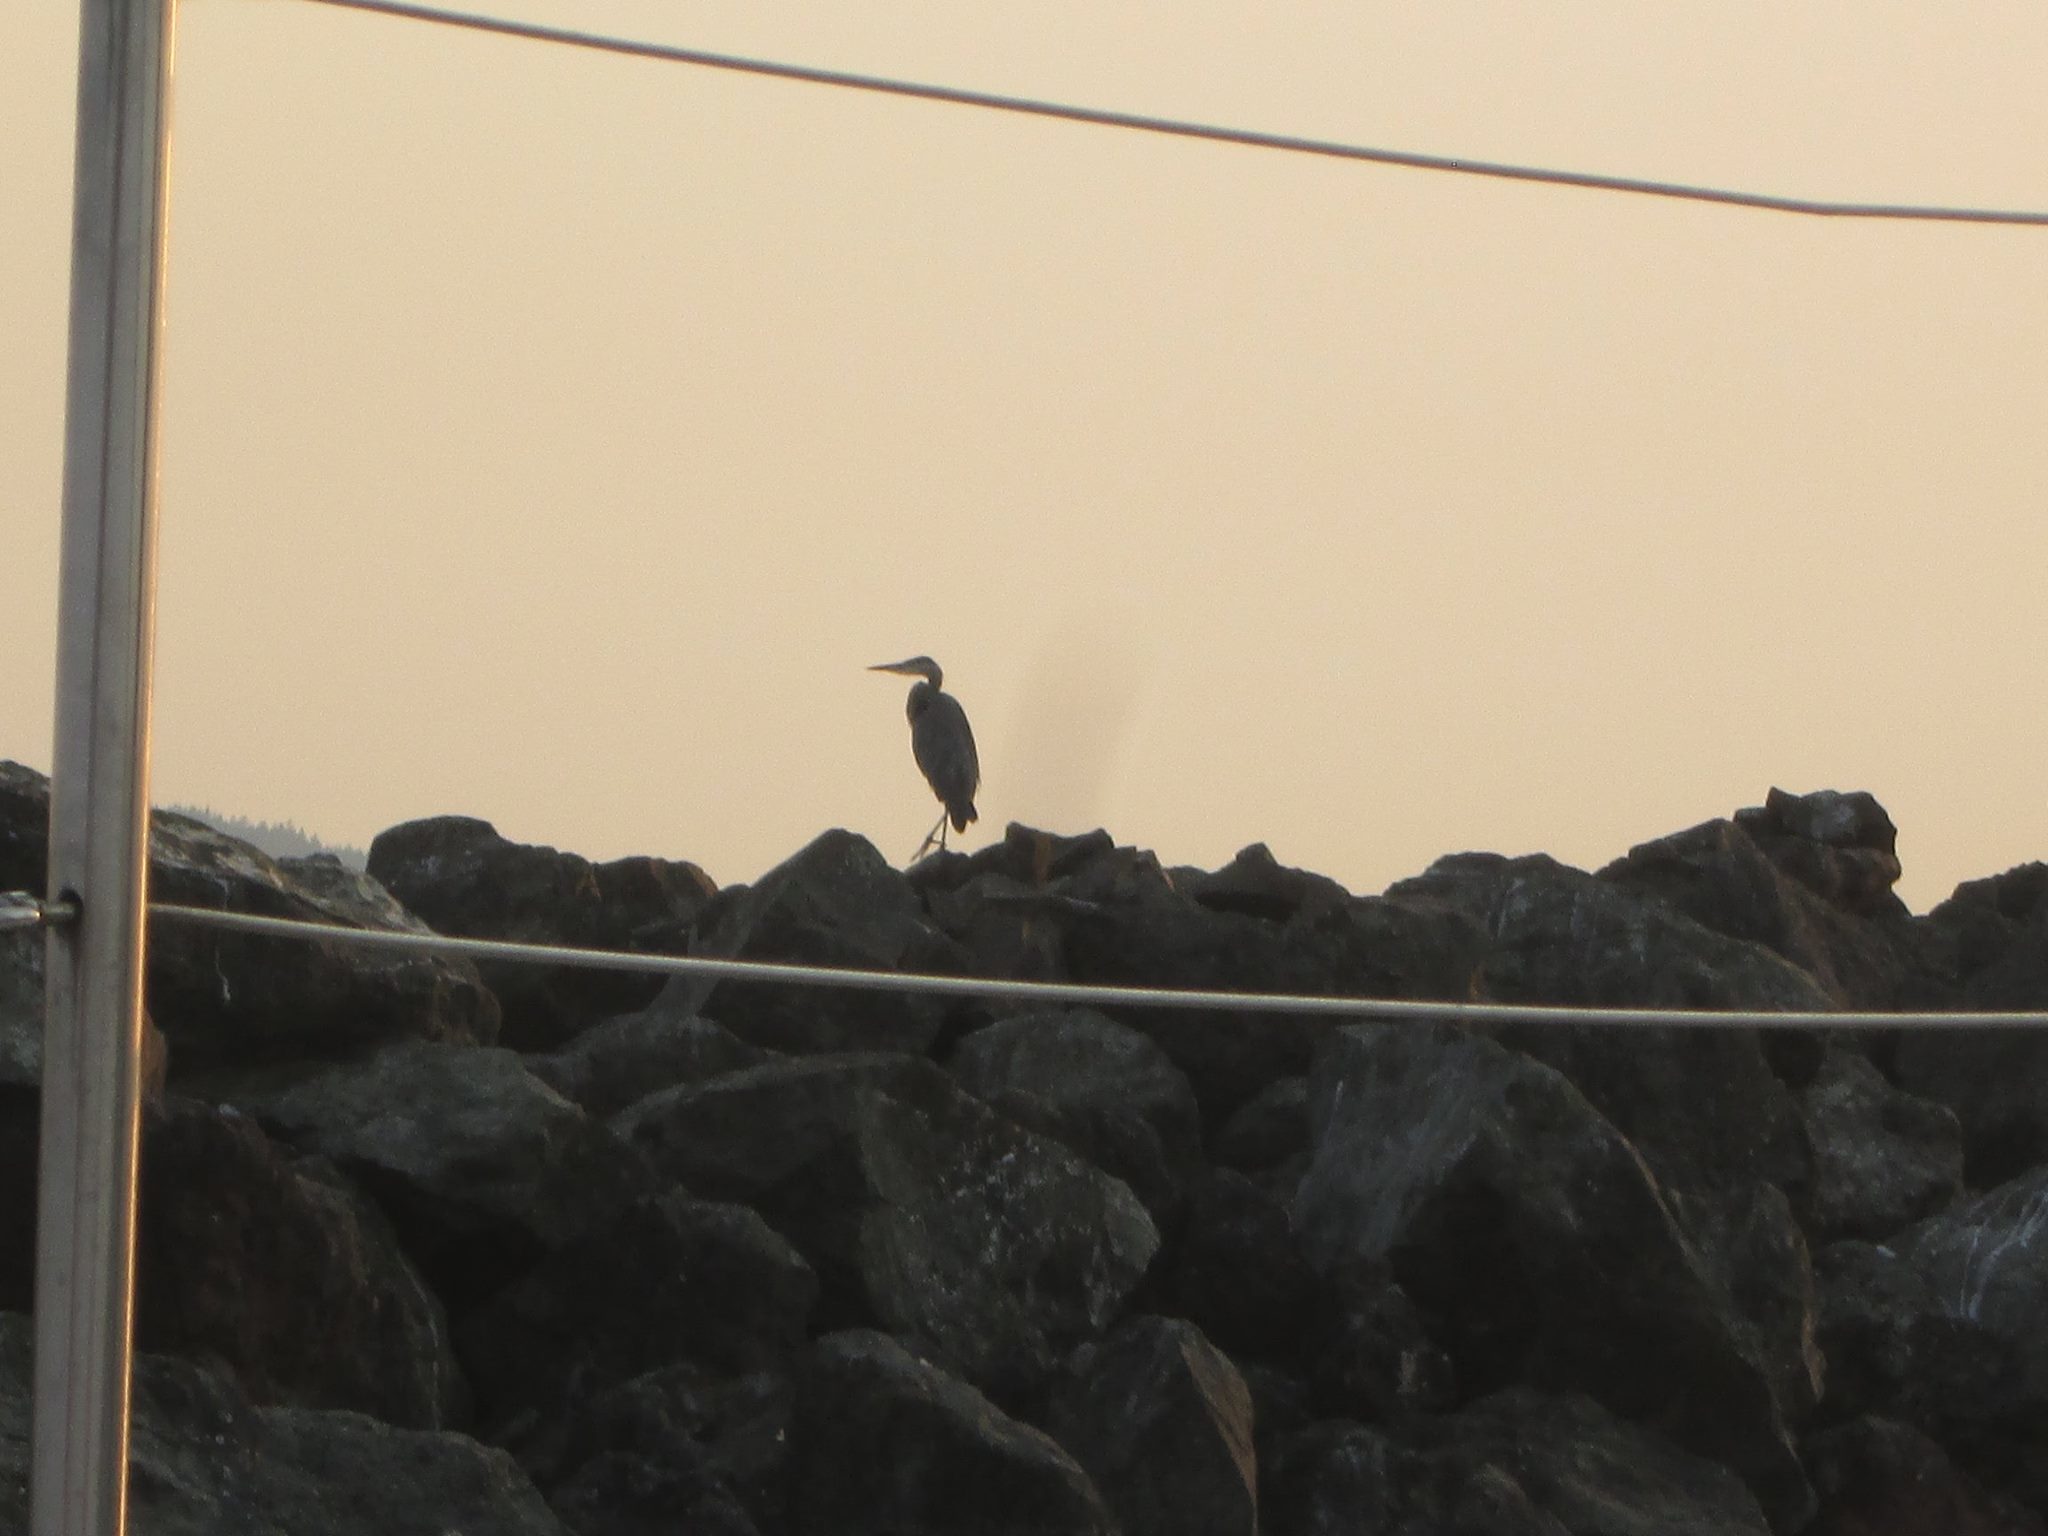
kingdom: Animalia
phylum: Chordata
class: Aves
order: Pelecaniformes
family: Ardeidae
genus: Ardea
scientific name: Ardea herodias
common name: Great blue heron
